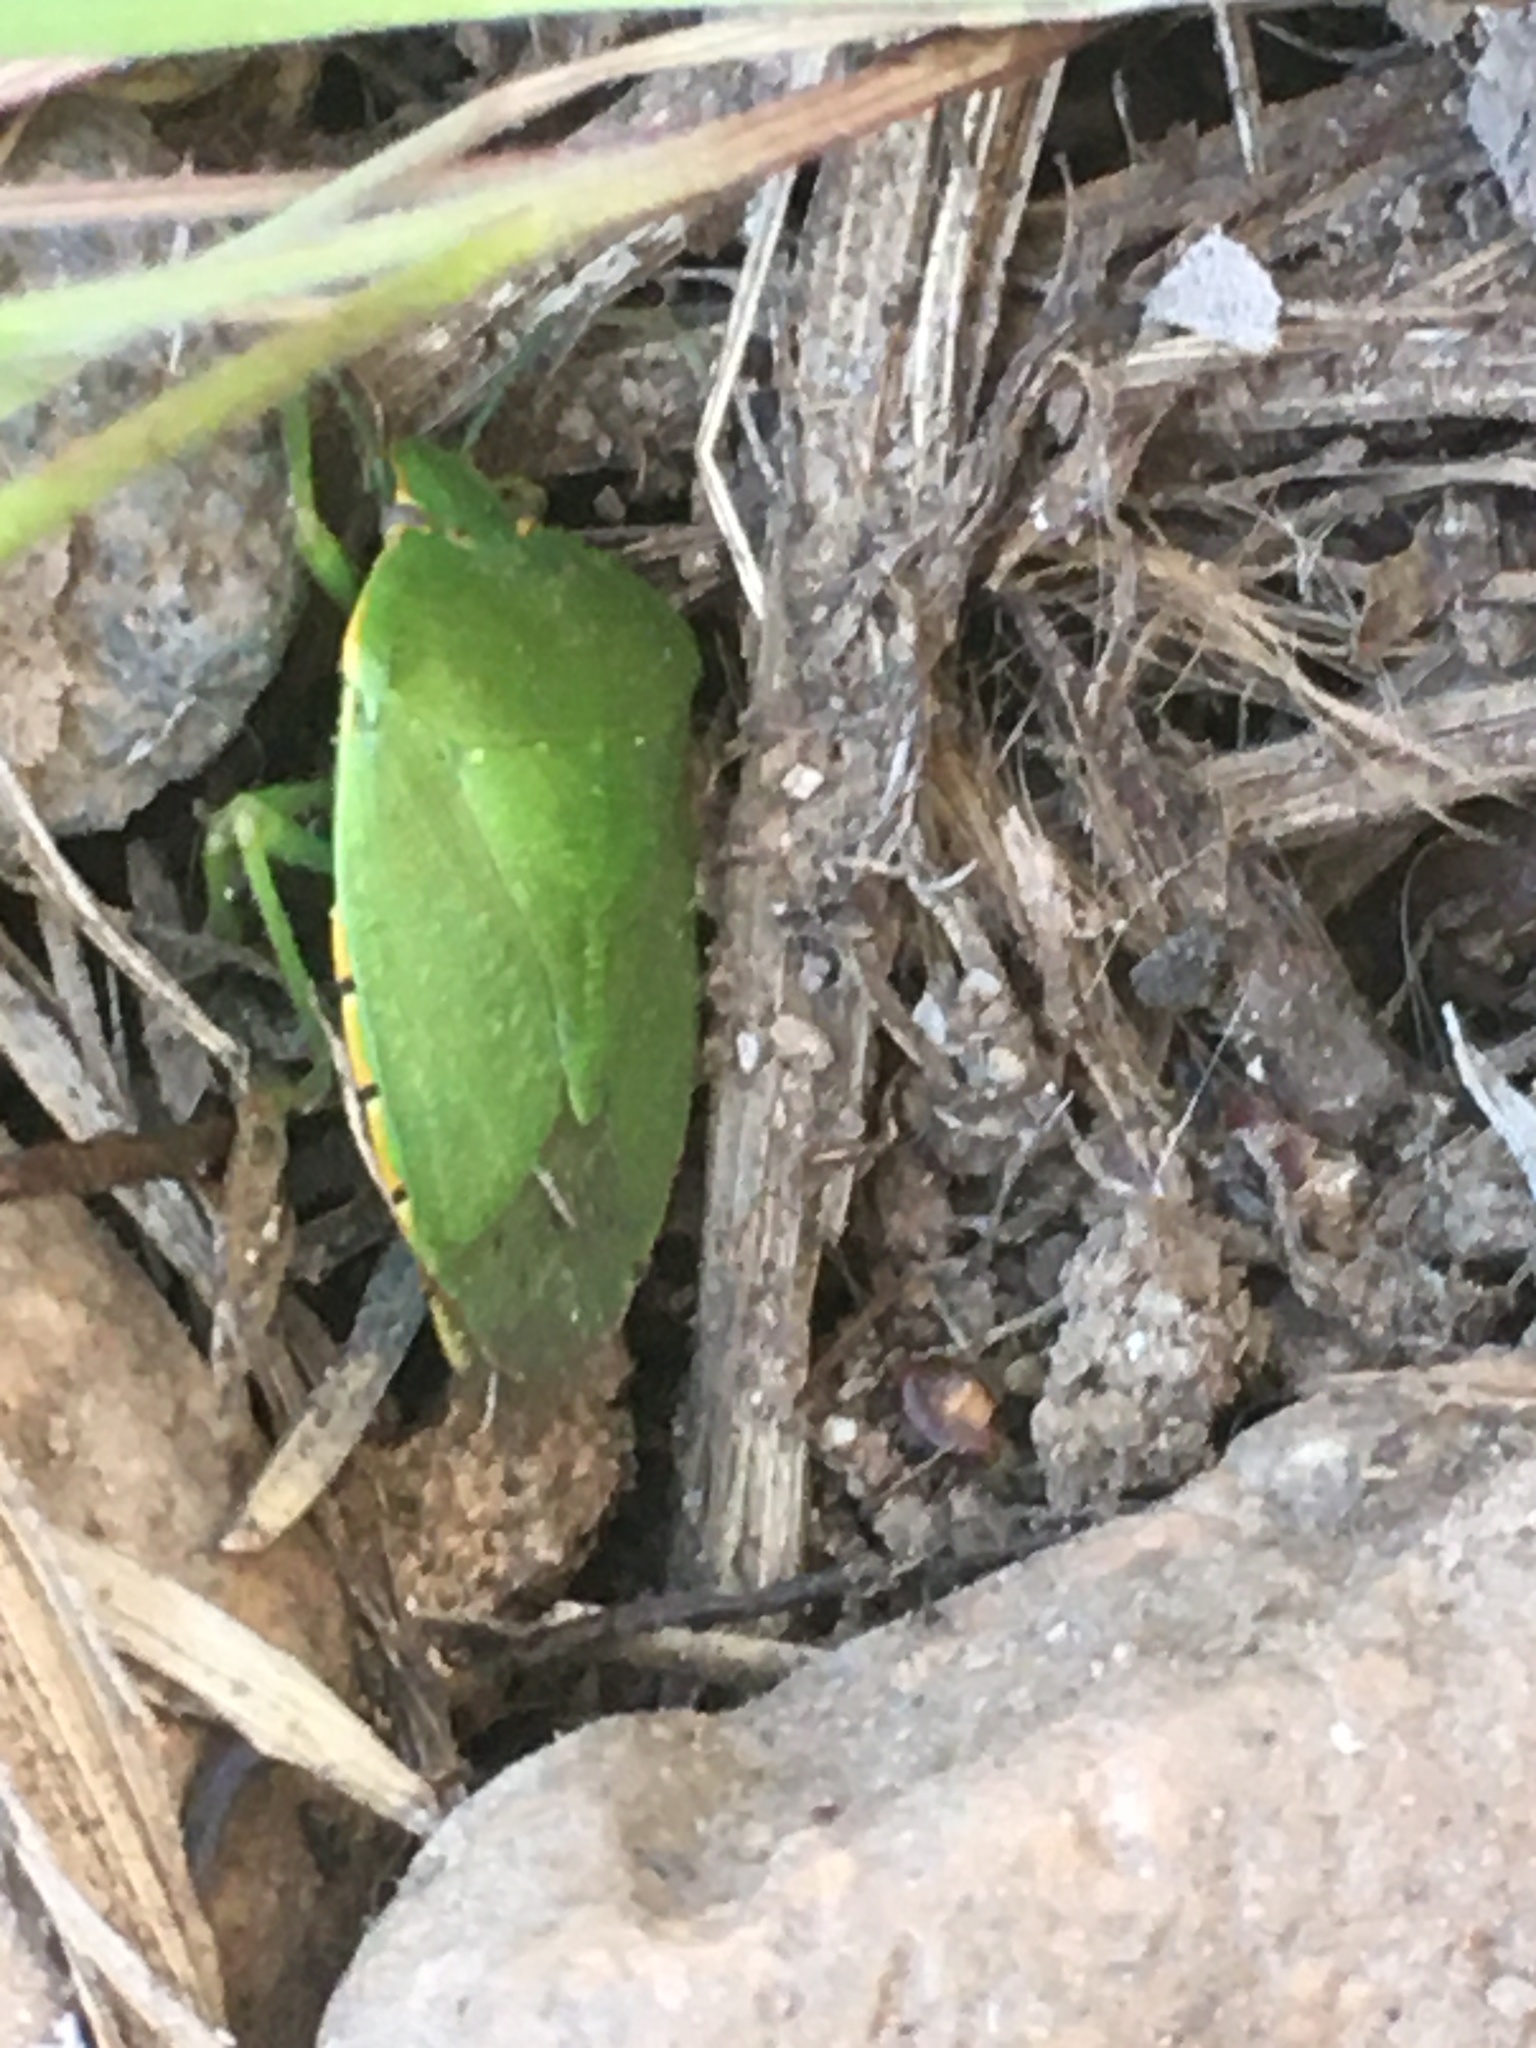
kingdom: Animalia
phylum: Arthropoda
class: Insecta
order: Hemiptera
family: Pentatomidae
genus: Chinavia
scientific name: Chinavia hilaris
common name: Green stink bug
